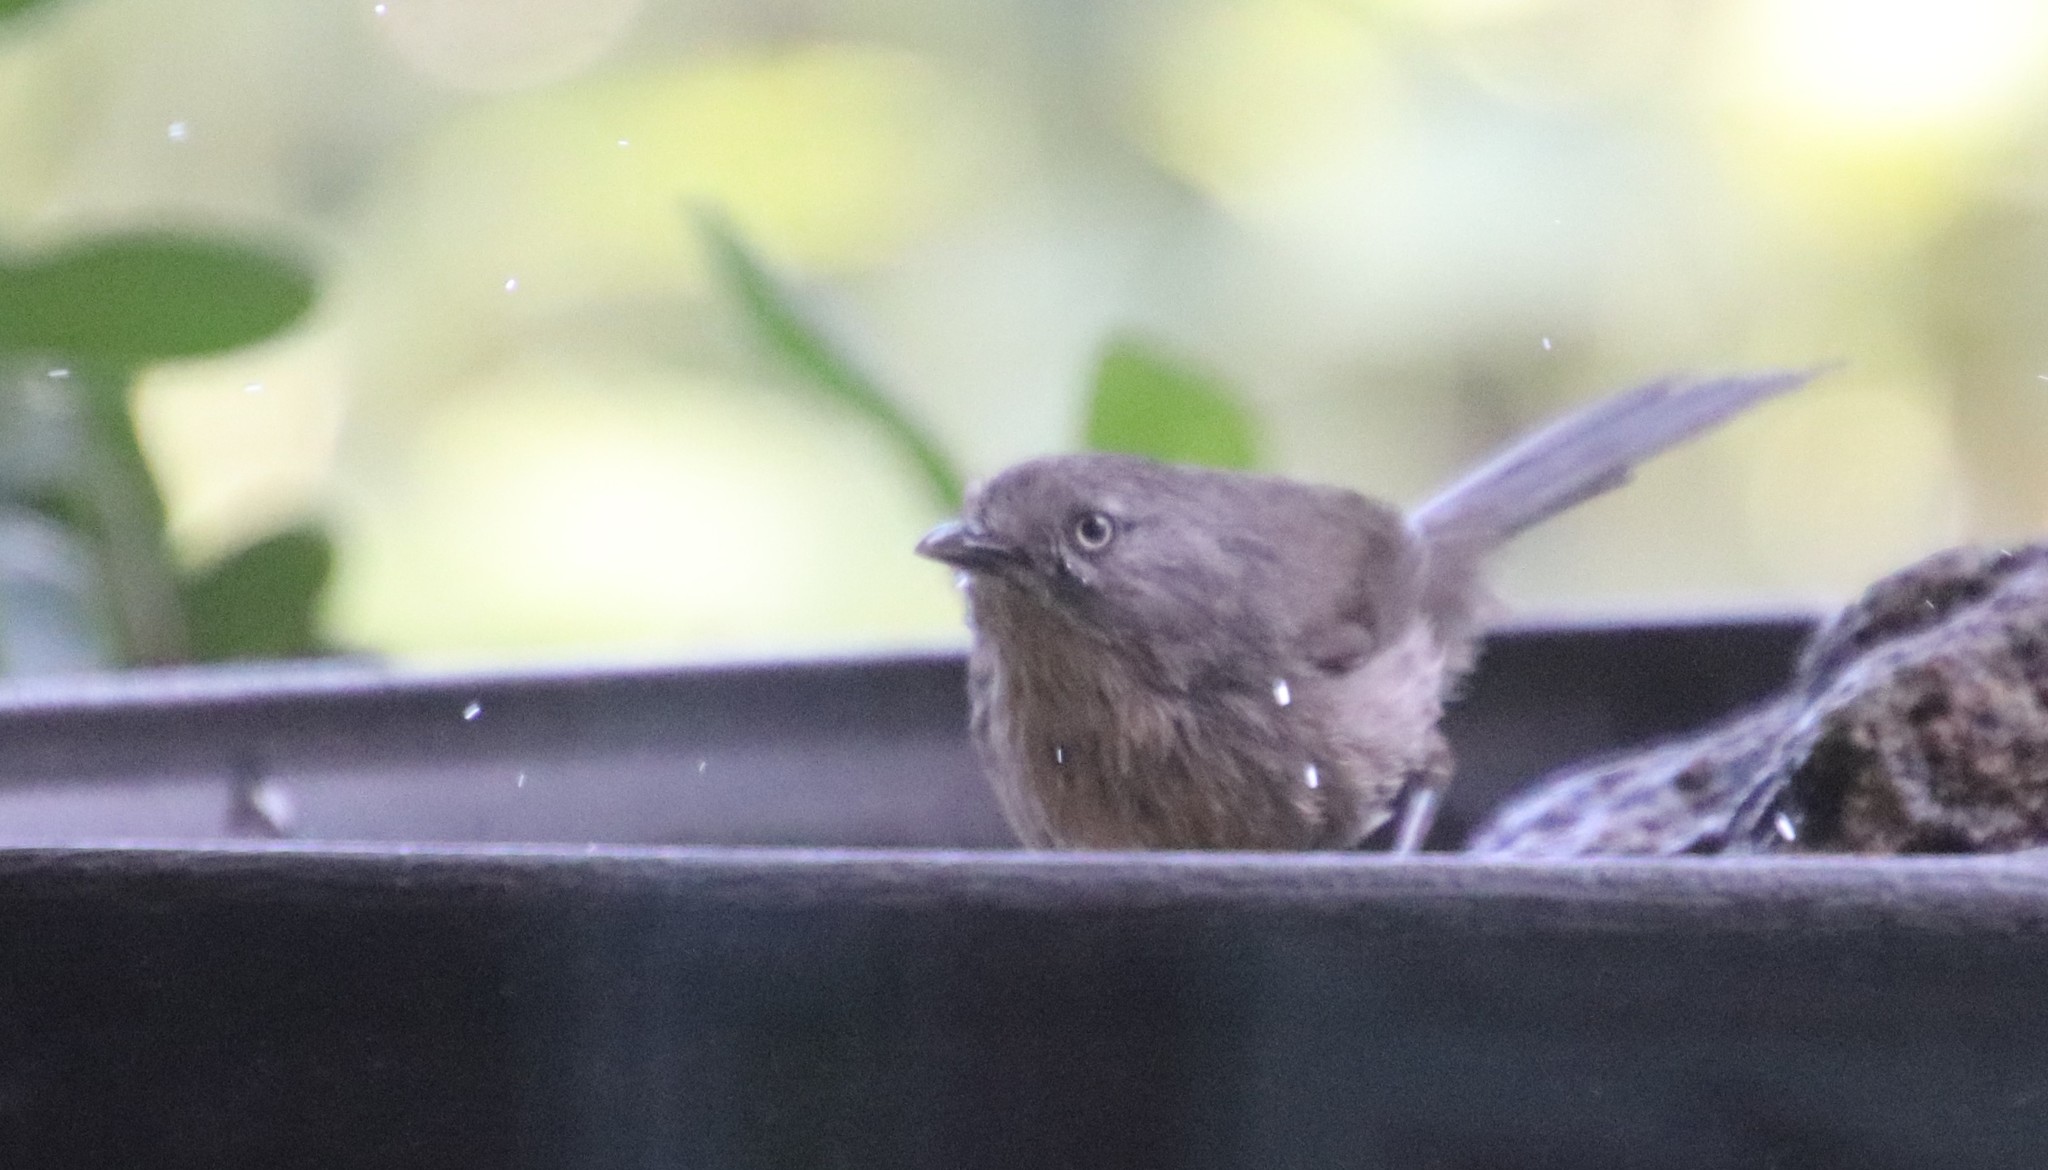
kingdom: Animalia
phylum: Chordata
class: Aves
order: Passeriformes
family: Sylviidae
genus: Chamaea
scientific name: Chamaea fasciata
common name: Wrentit
